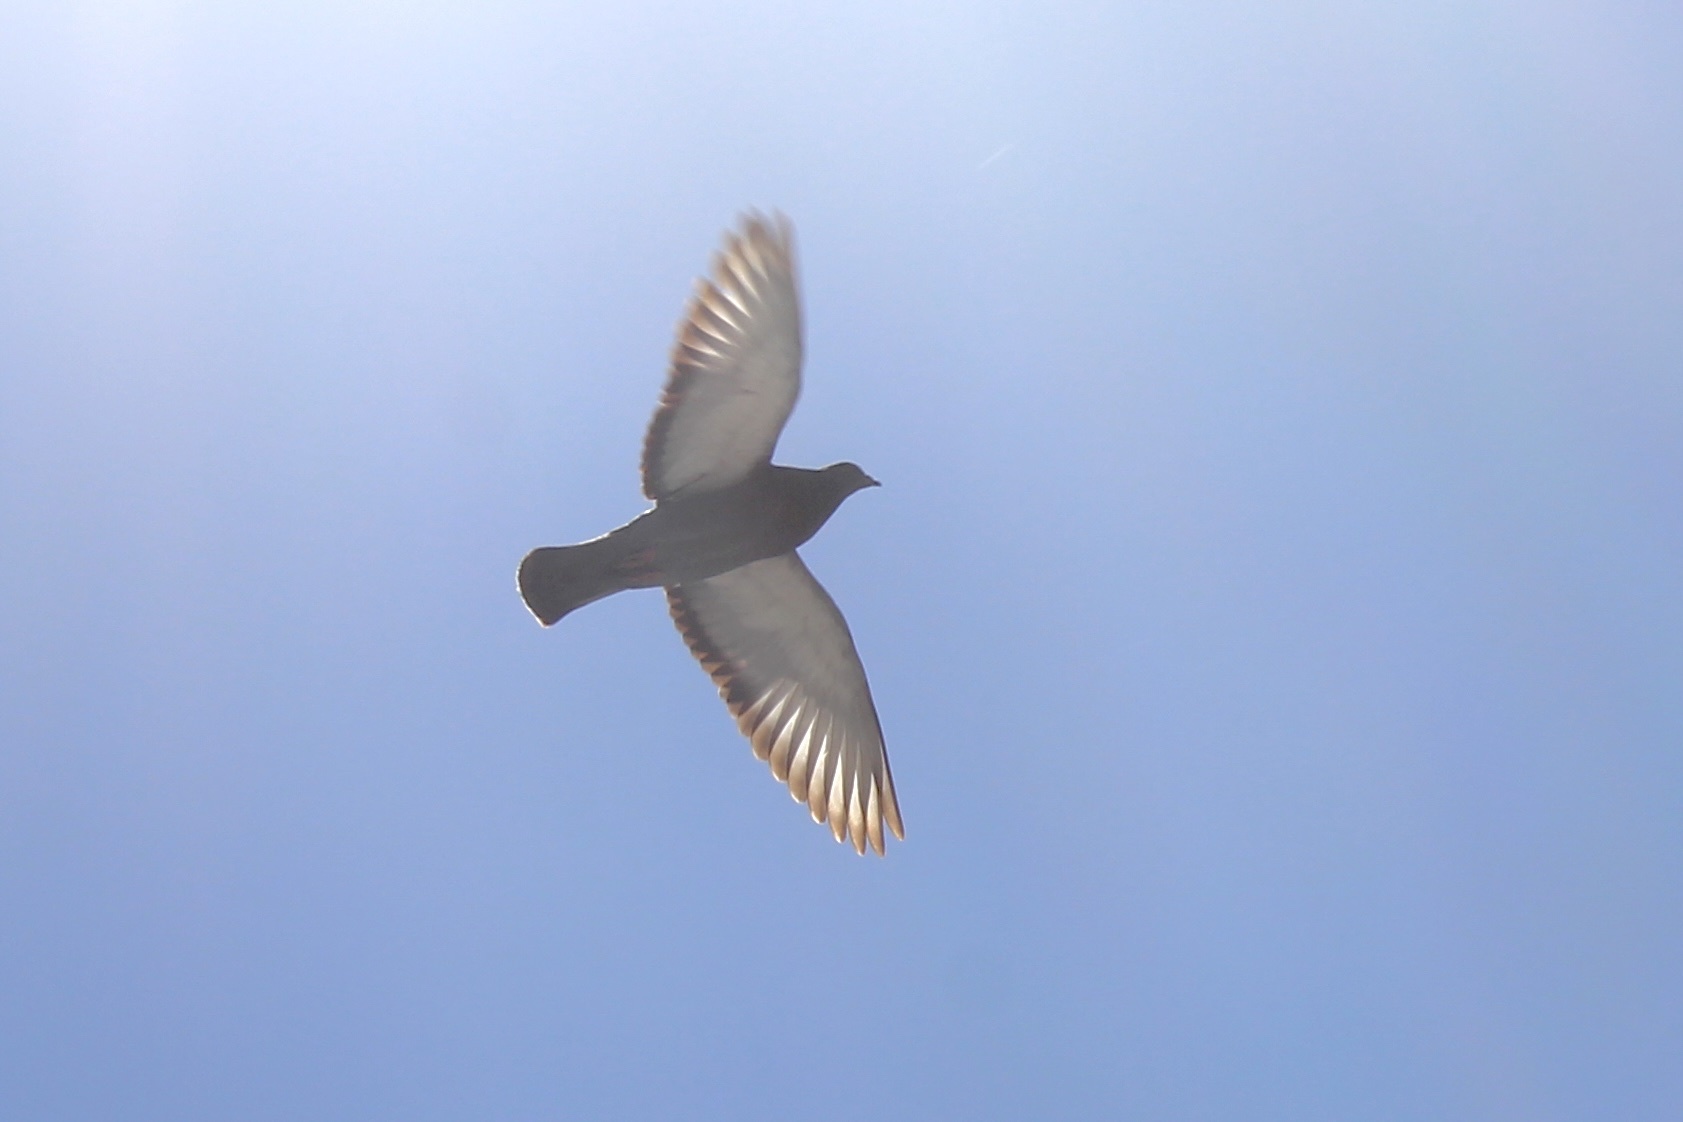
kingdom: Animalia
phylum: Chordata
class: Aves
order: Columbiformes
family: Columbidae
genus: Columba
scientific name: Columba livia
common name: Rock pigeon
